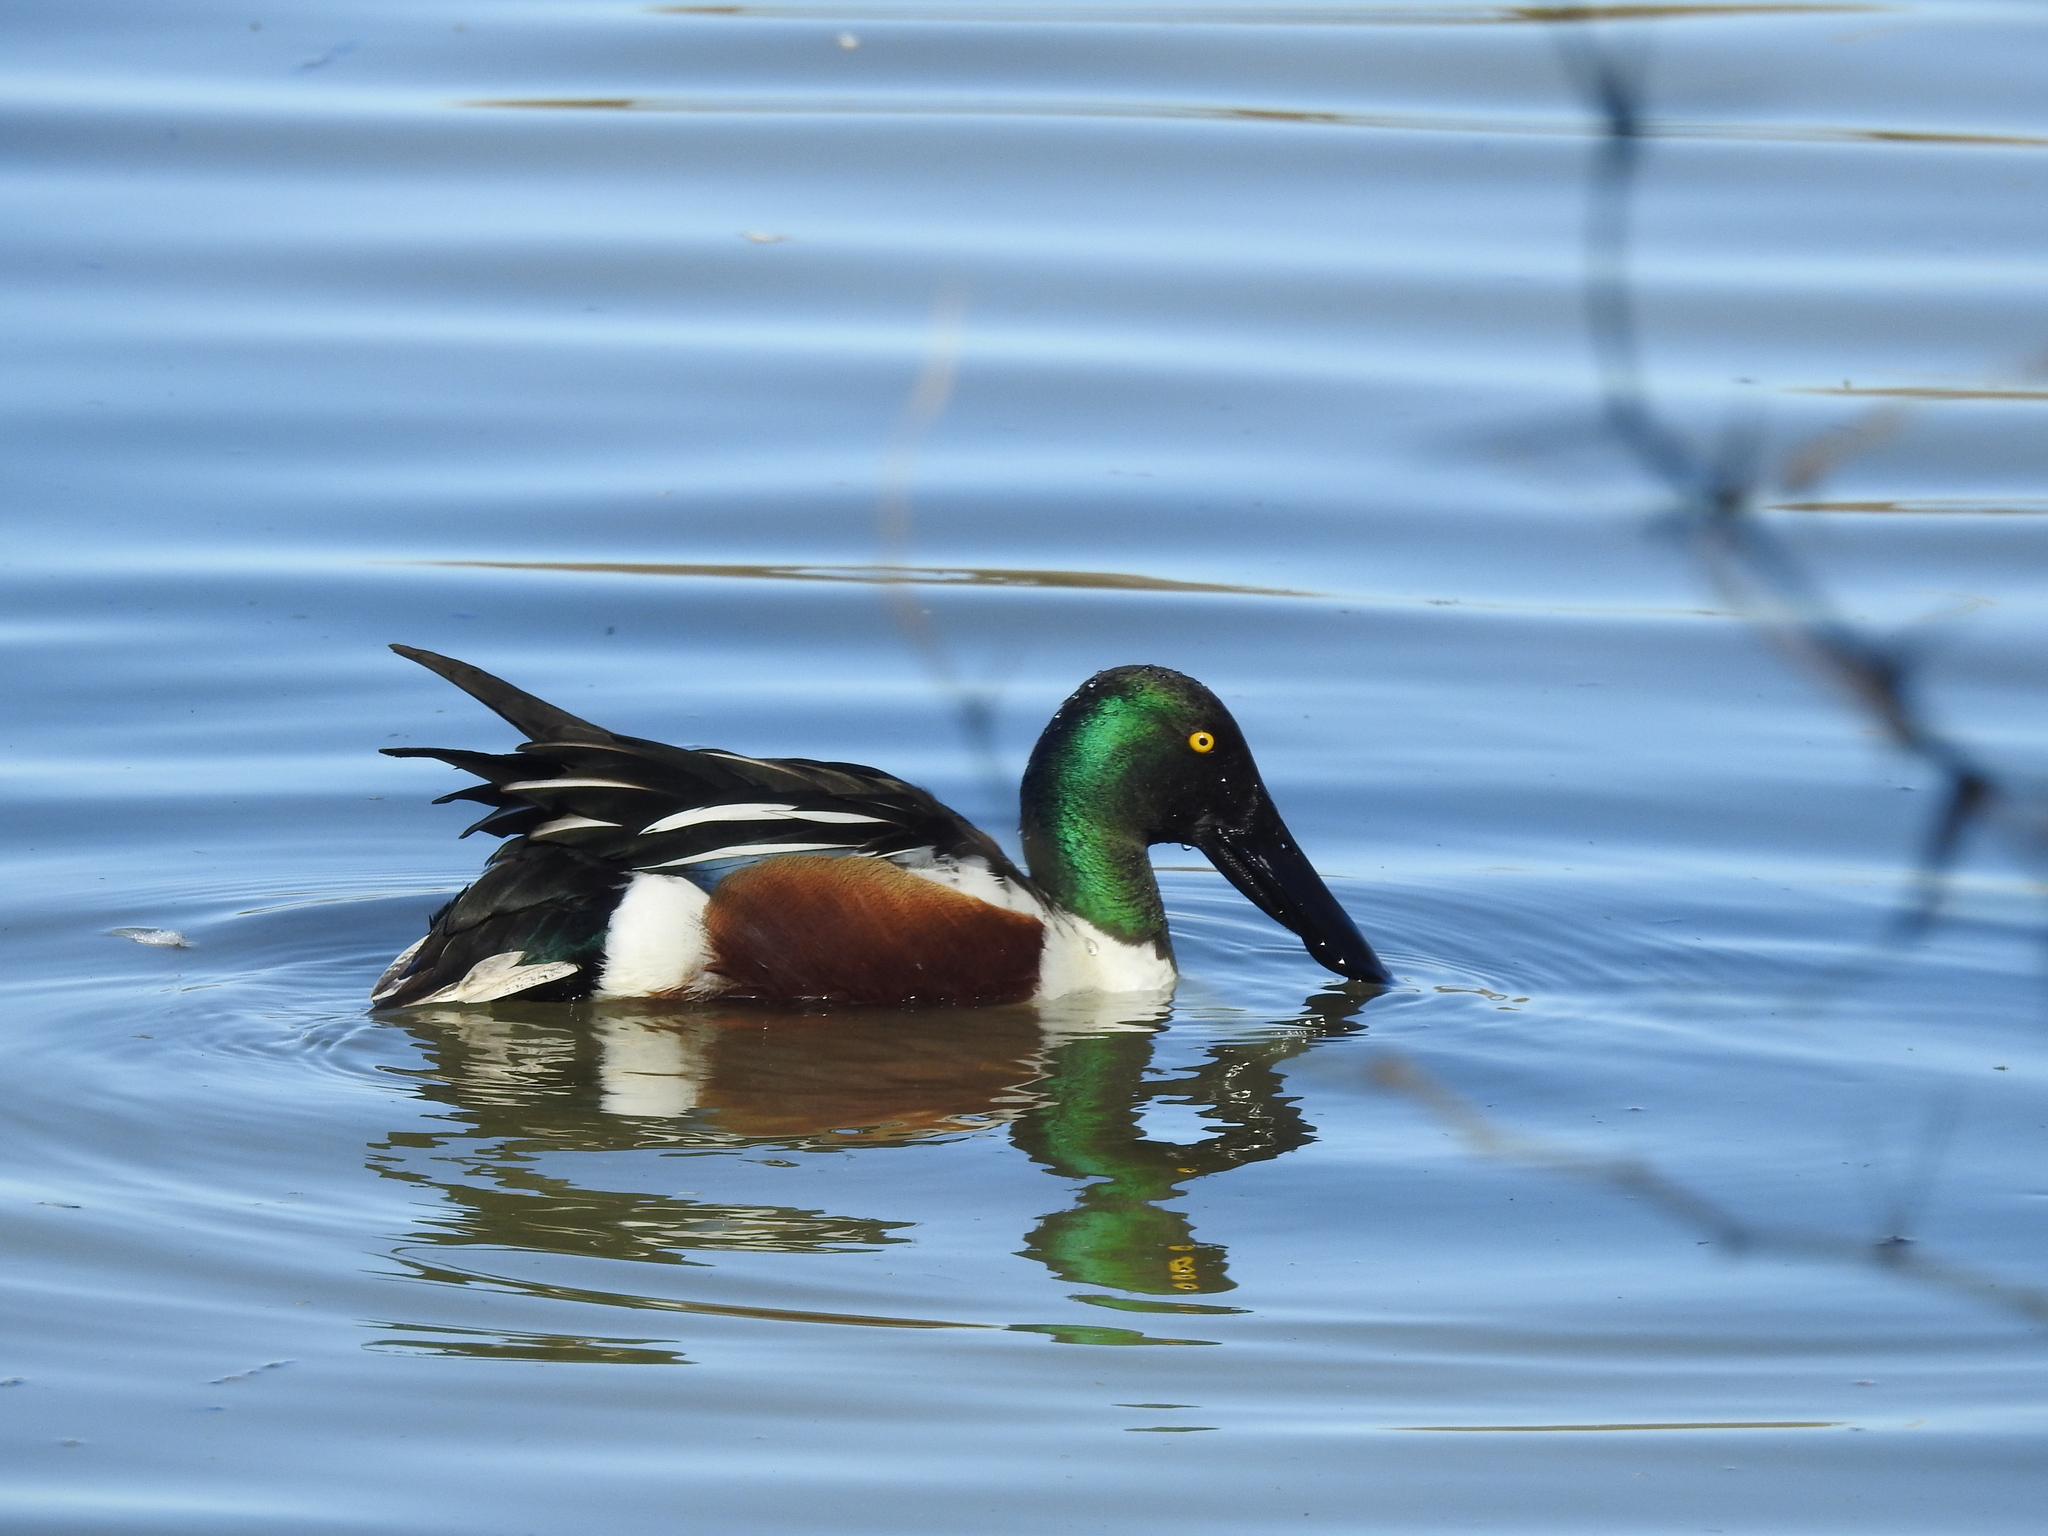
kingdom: Animalia
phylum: Chordata
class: Aves
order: Anseriformes
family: Anatidae
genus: Spatula
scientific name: Spatula clypeata
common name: Northern shoveler
